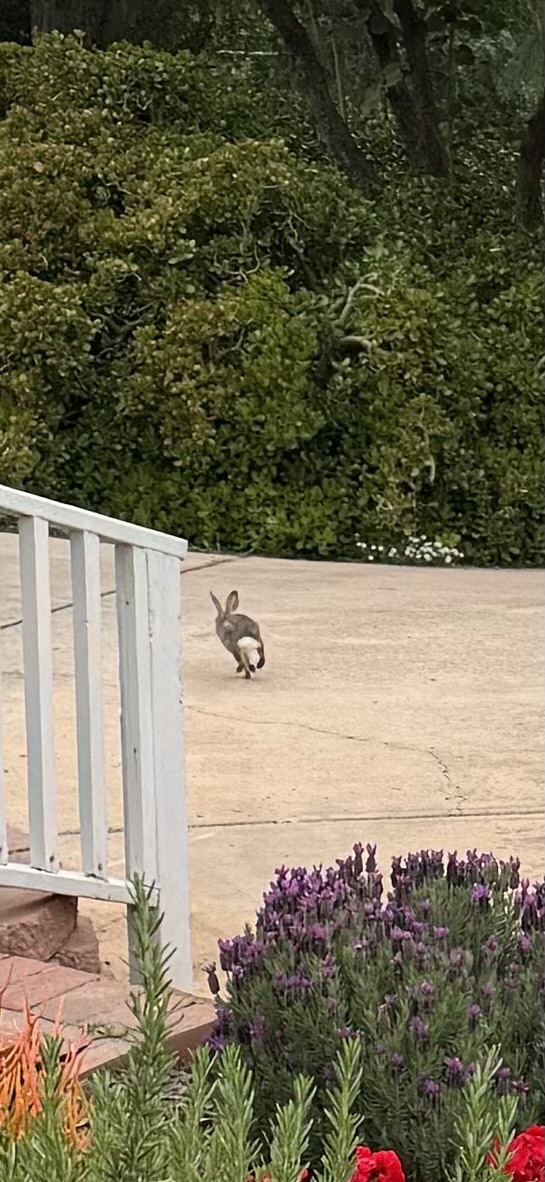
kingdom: Animalia
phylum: Chordata
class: Mammalia
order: Lagomorpha
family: Leporidae
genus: Sylvilagus
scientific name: Sylvilagus audubonii
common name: Desert cottontail
